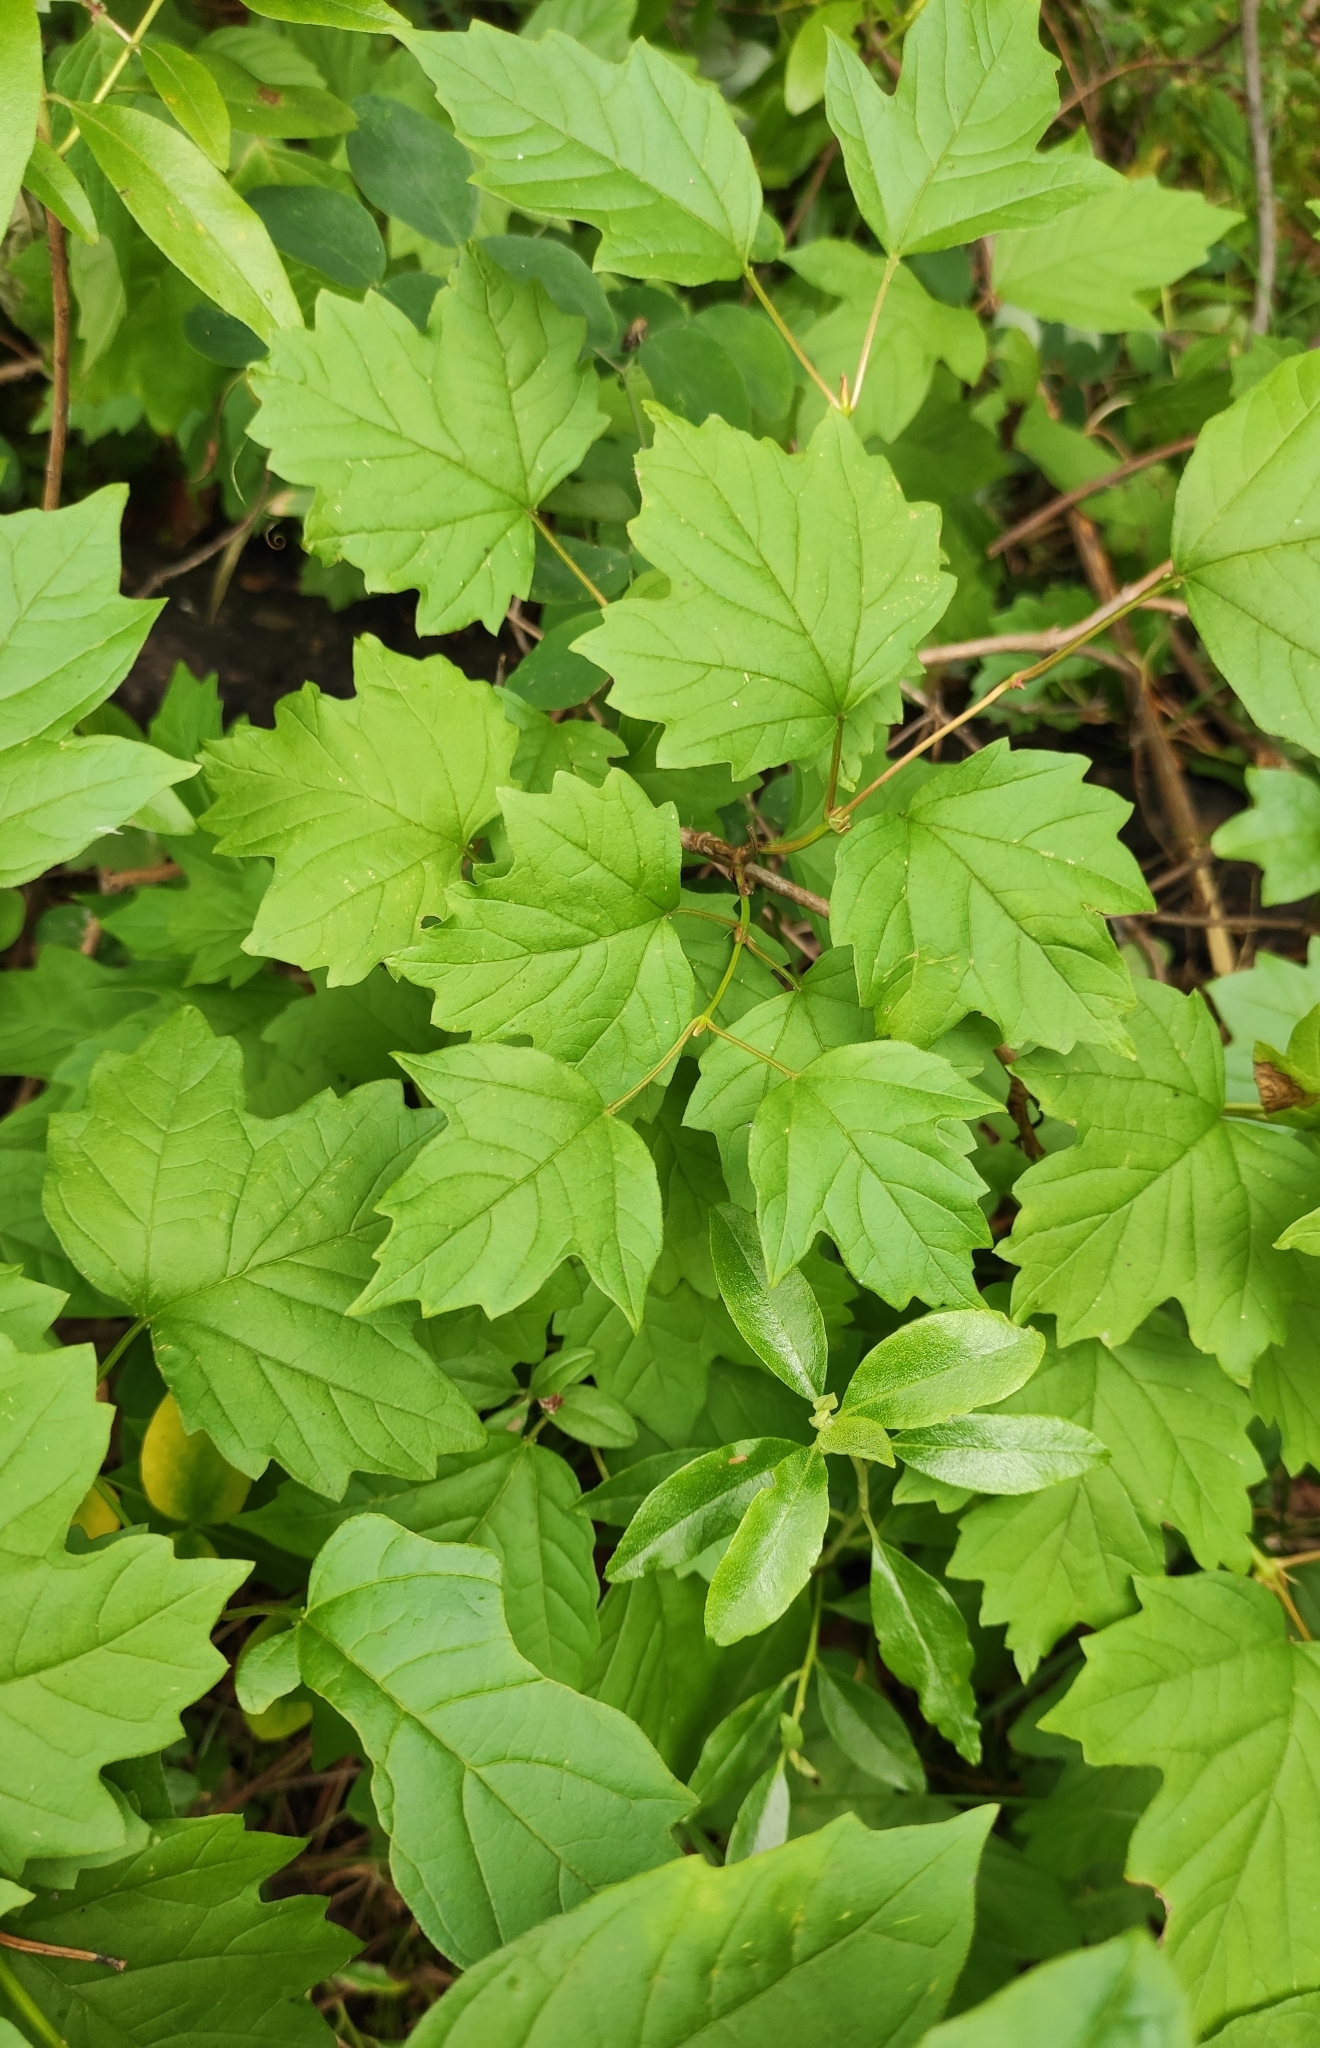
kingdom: Plantae
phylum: Tracheophyta
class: Magnoliopsida
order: Dipsacales
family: Viburnaceae
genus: Viburnum
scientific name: Viburnum opulus
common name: Guelder-rose
